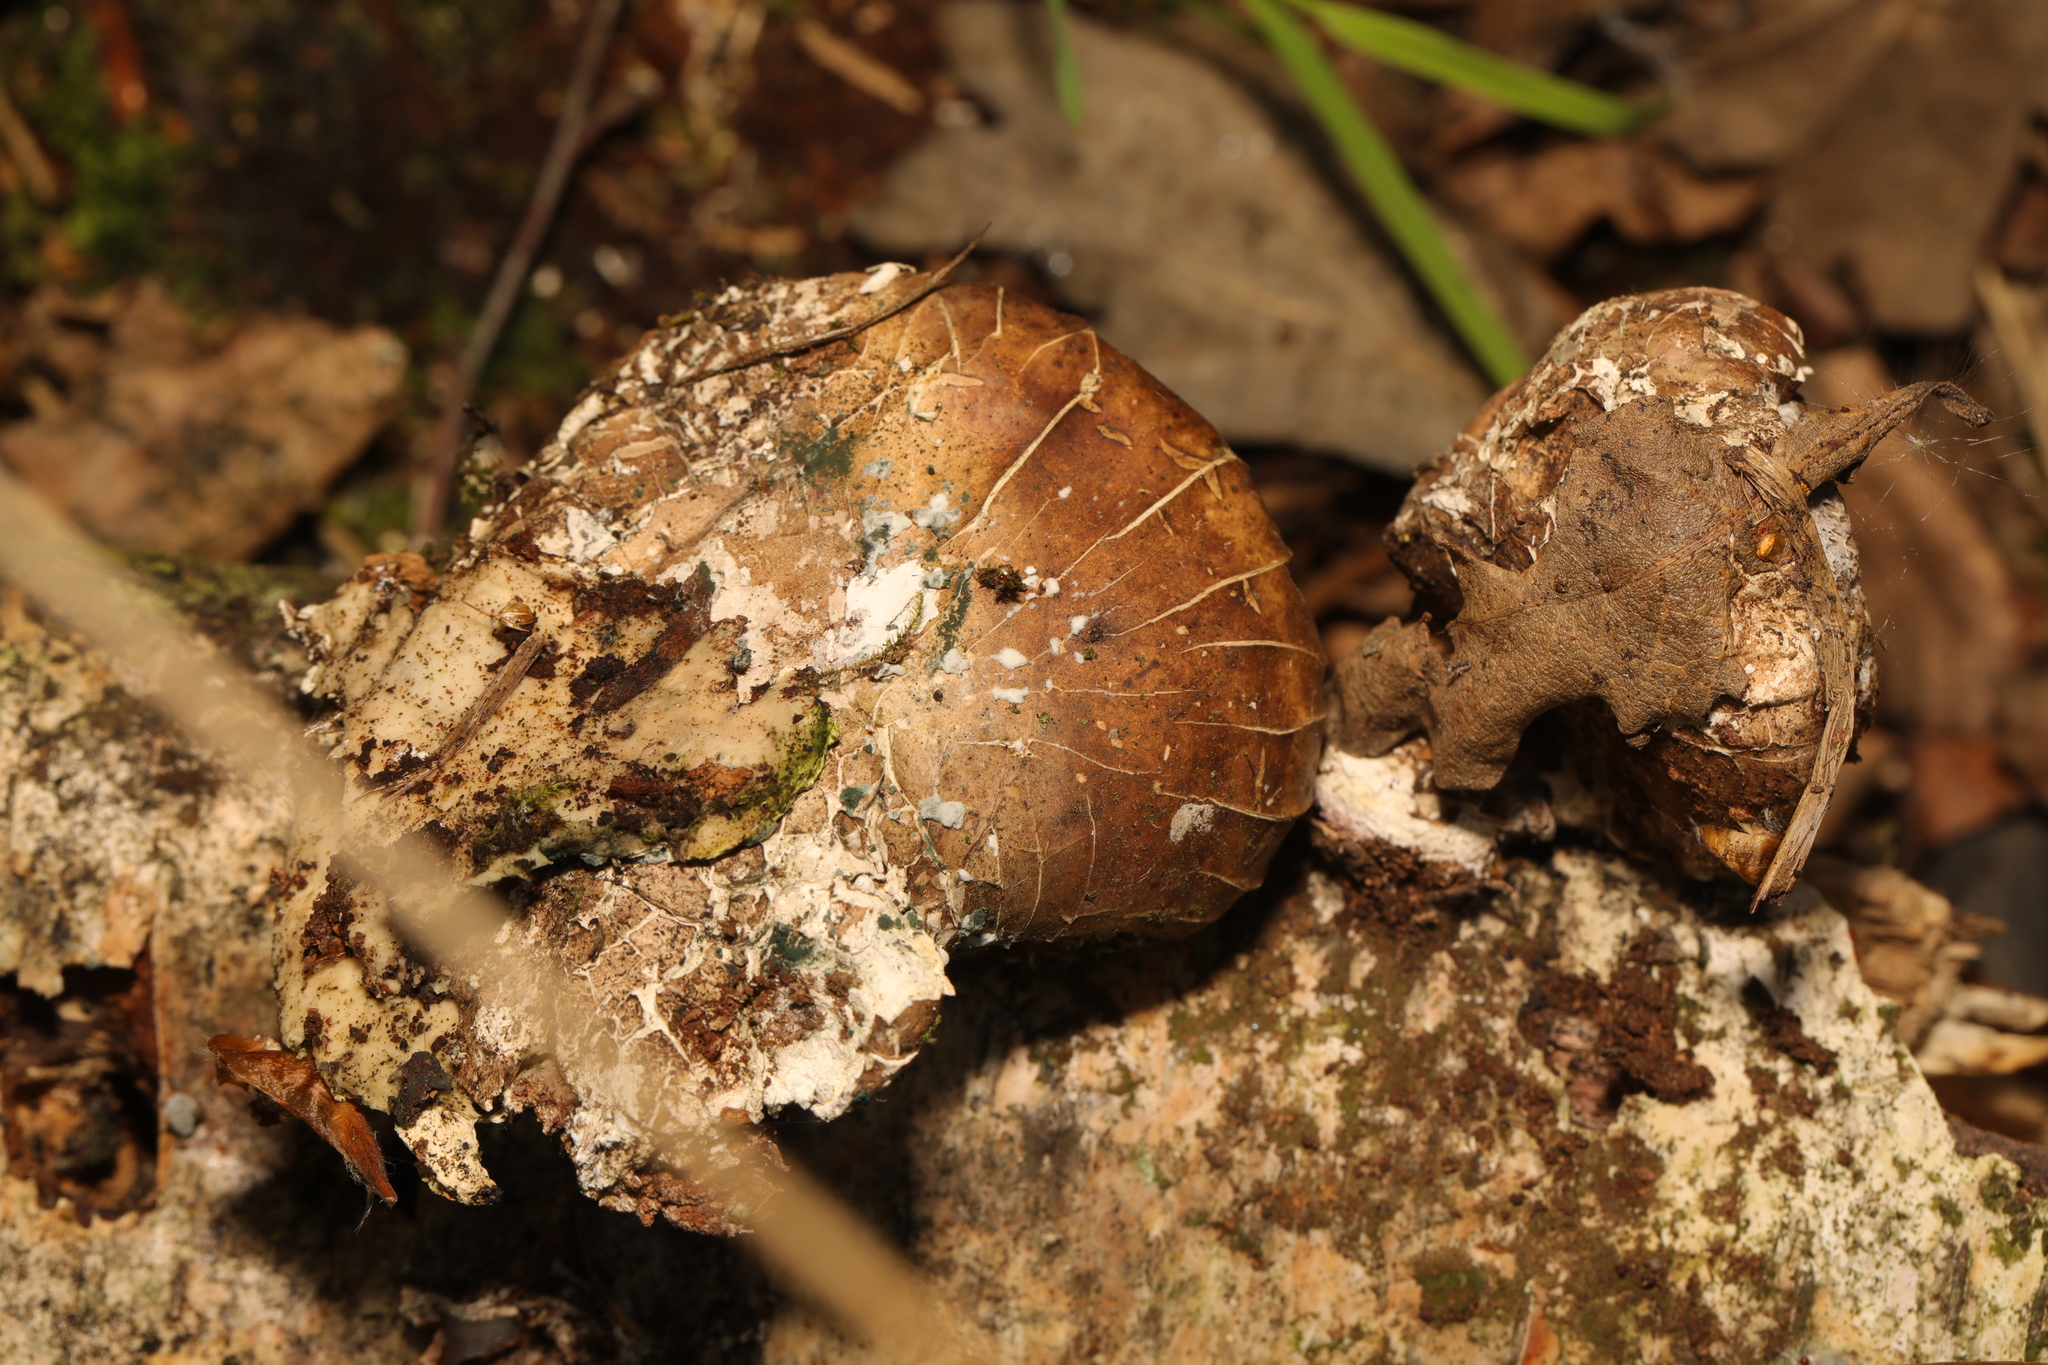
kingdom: Fungi
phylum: Basidiomycota
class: Agaricomycetes
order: Polyporales
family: Fomitopsidaceae
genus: Fomitopsis
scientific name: Fomitopsis betulina
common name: Birch polypore
